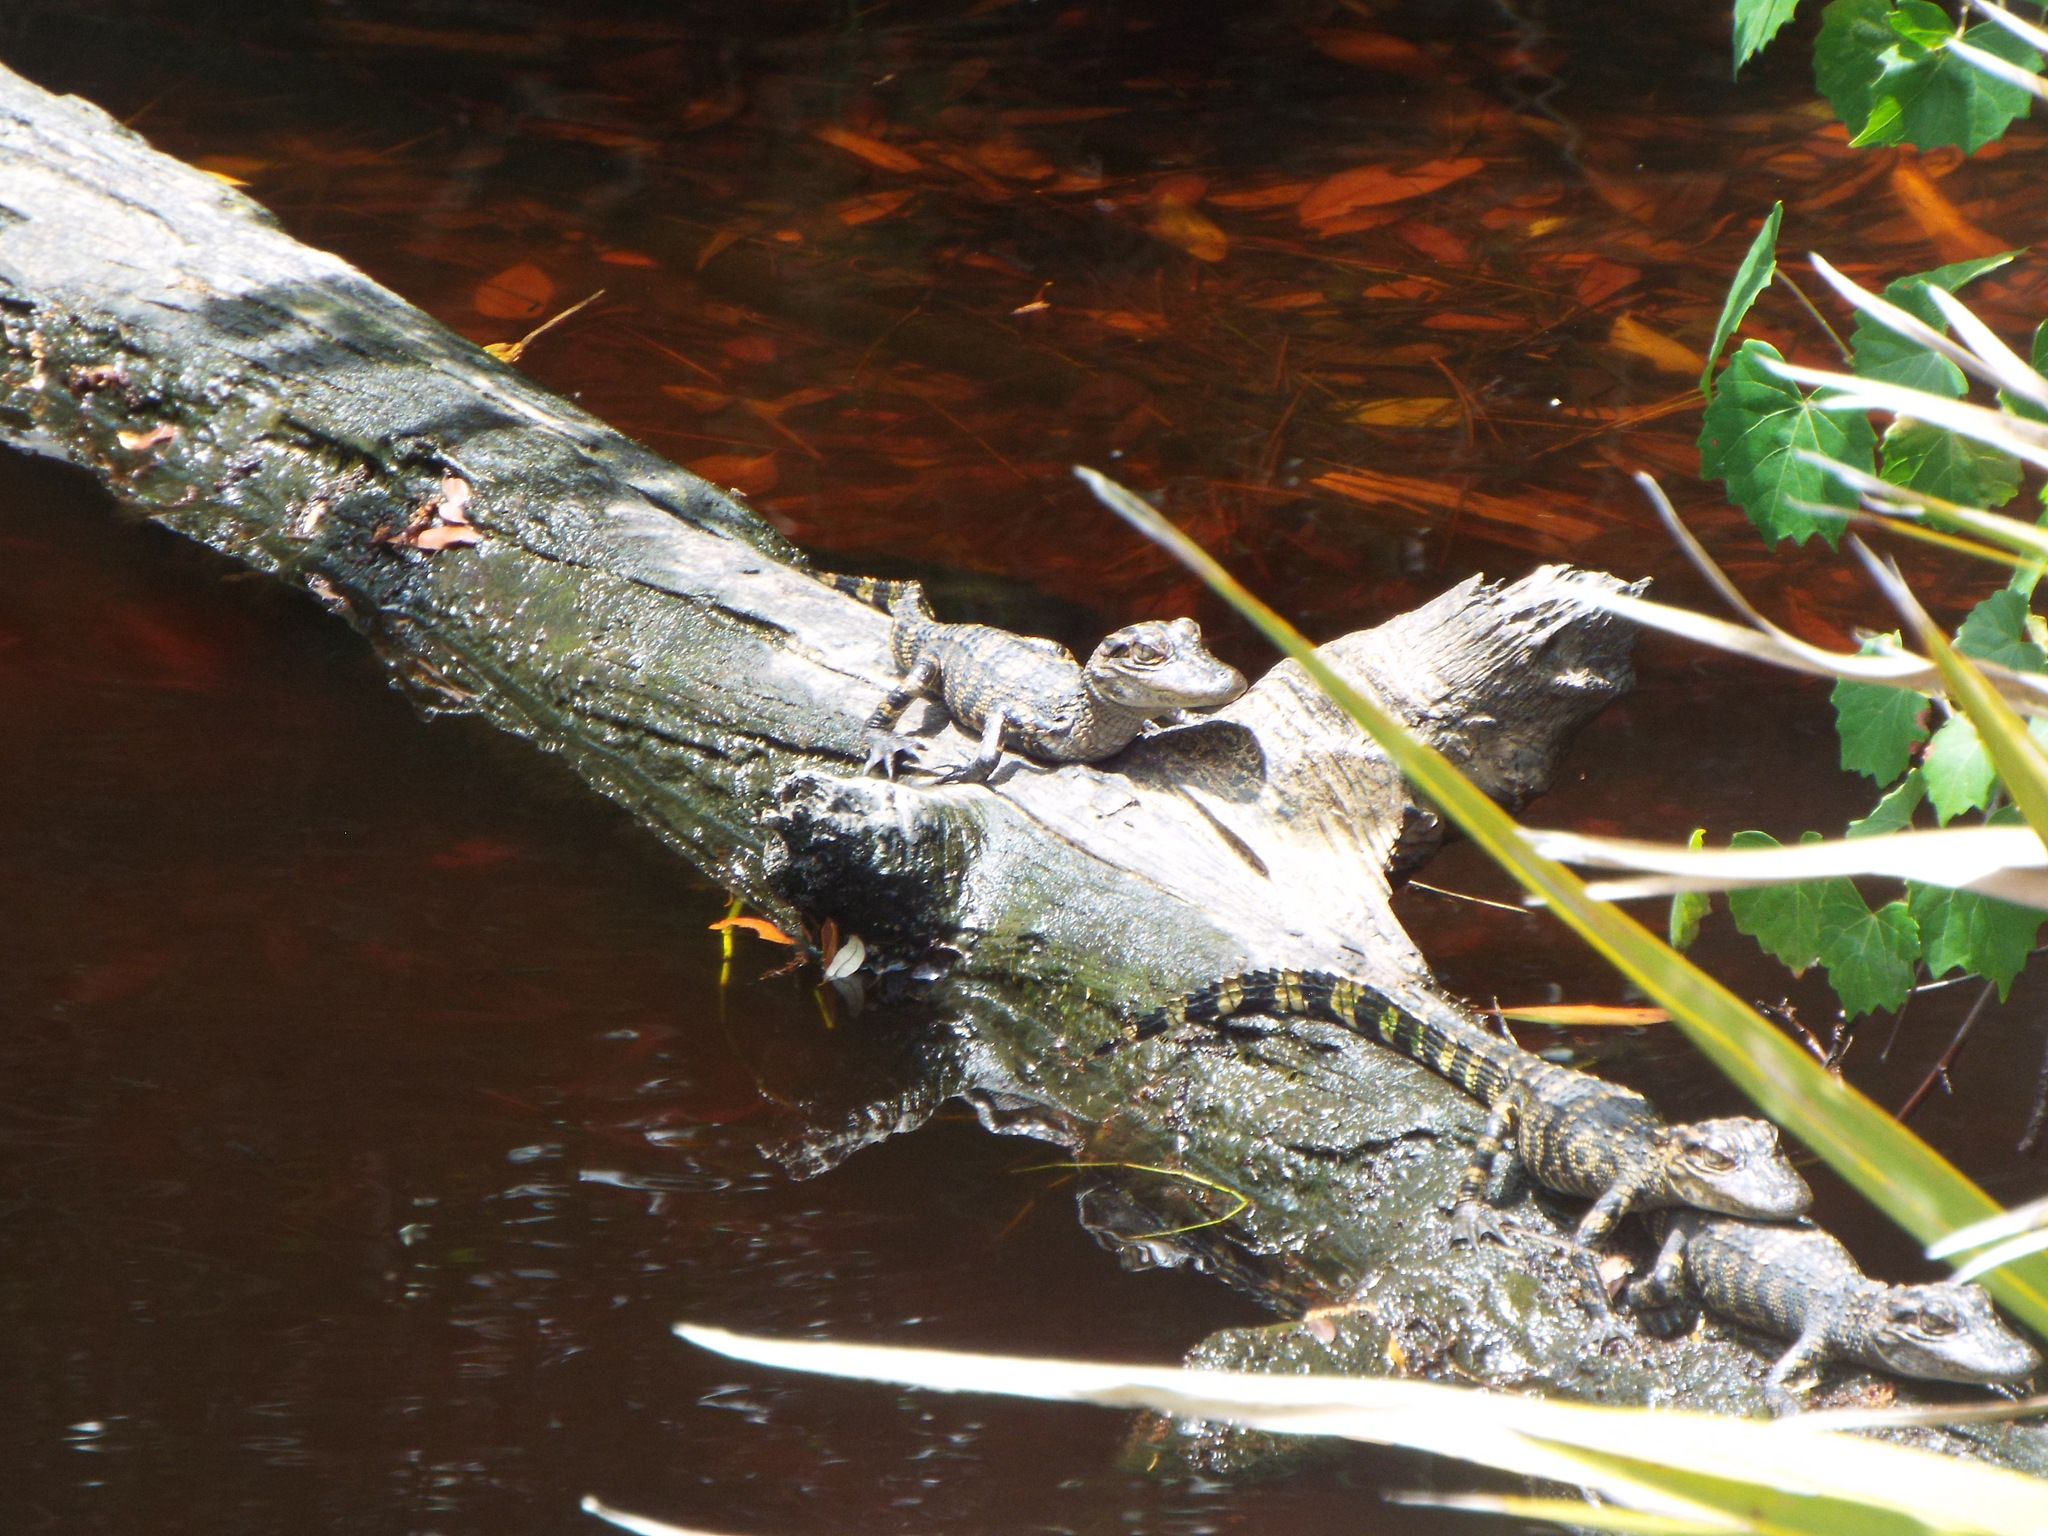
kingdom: Animalia
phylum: Chordata
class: Crocodylia
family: Alligatoridae
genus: Alligator
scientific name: Alligator mississippiensis
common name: American alligator
